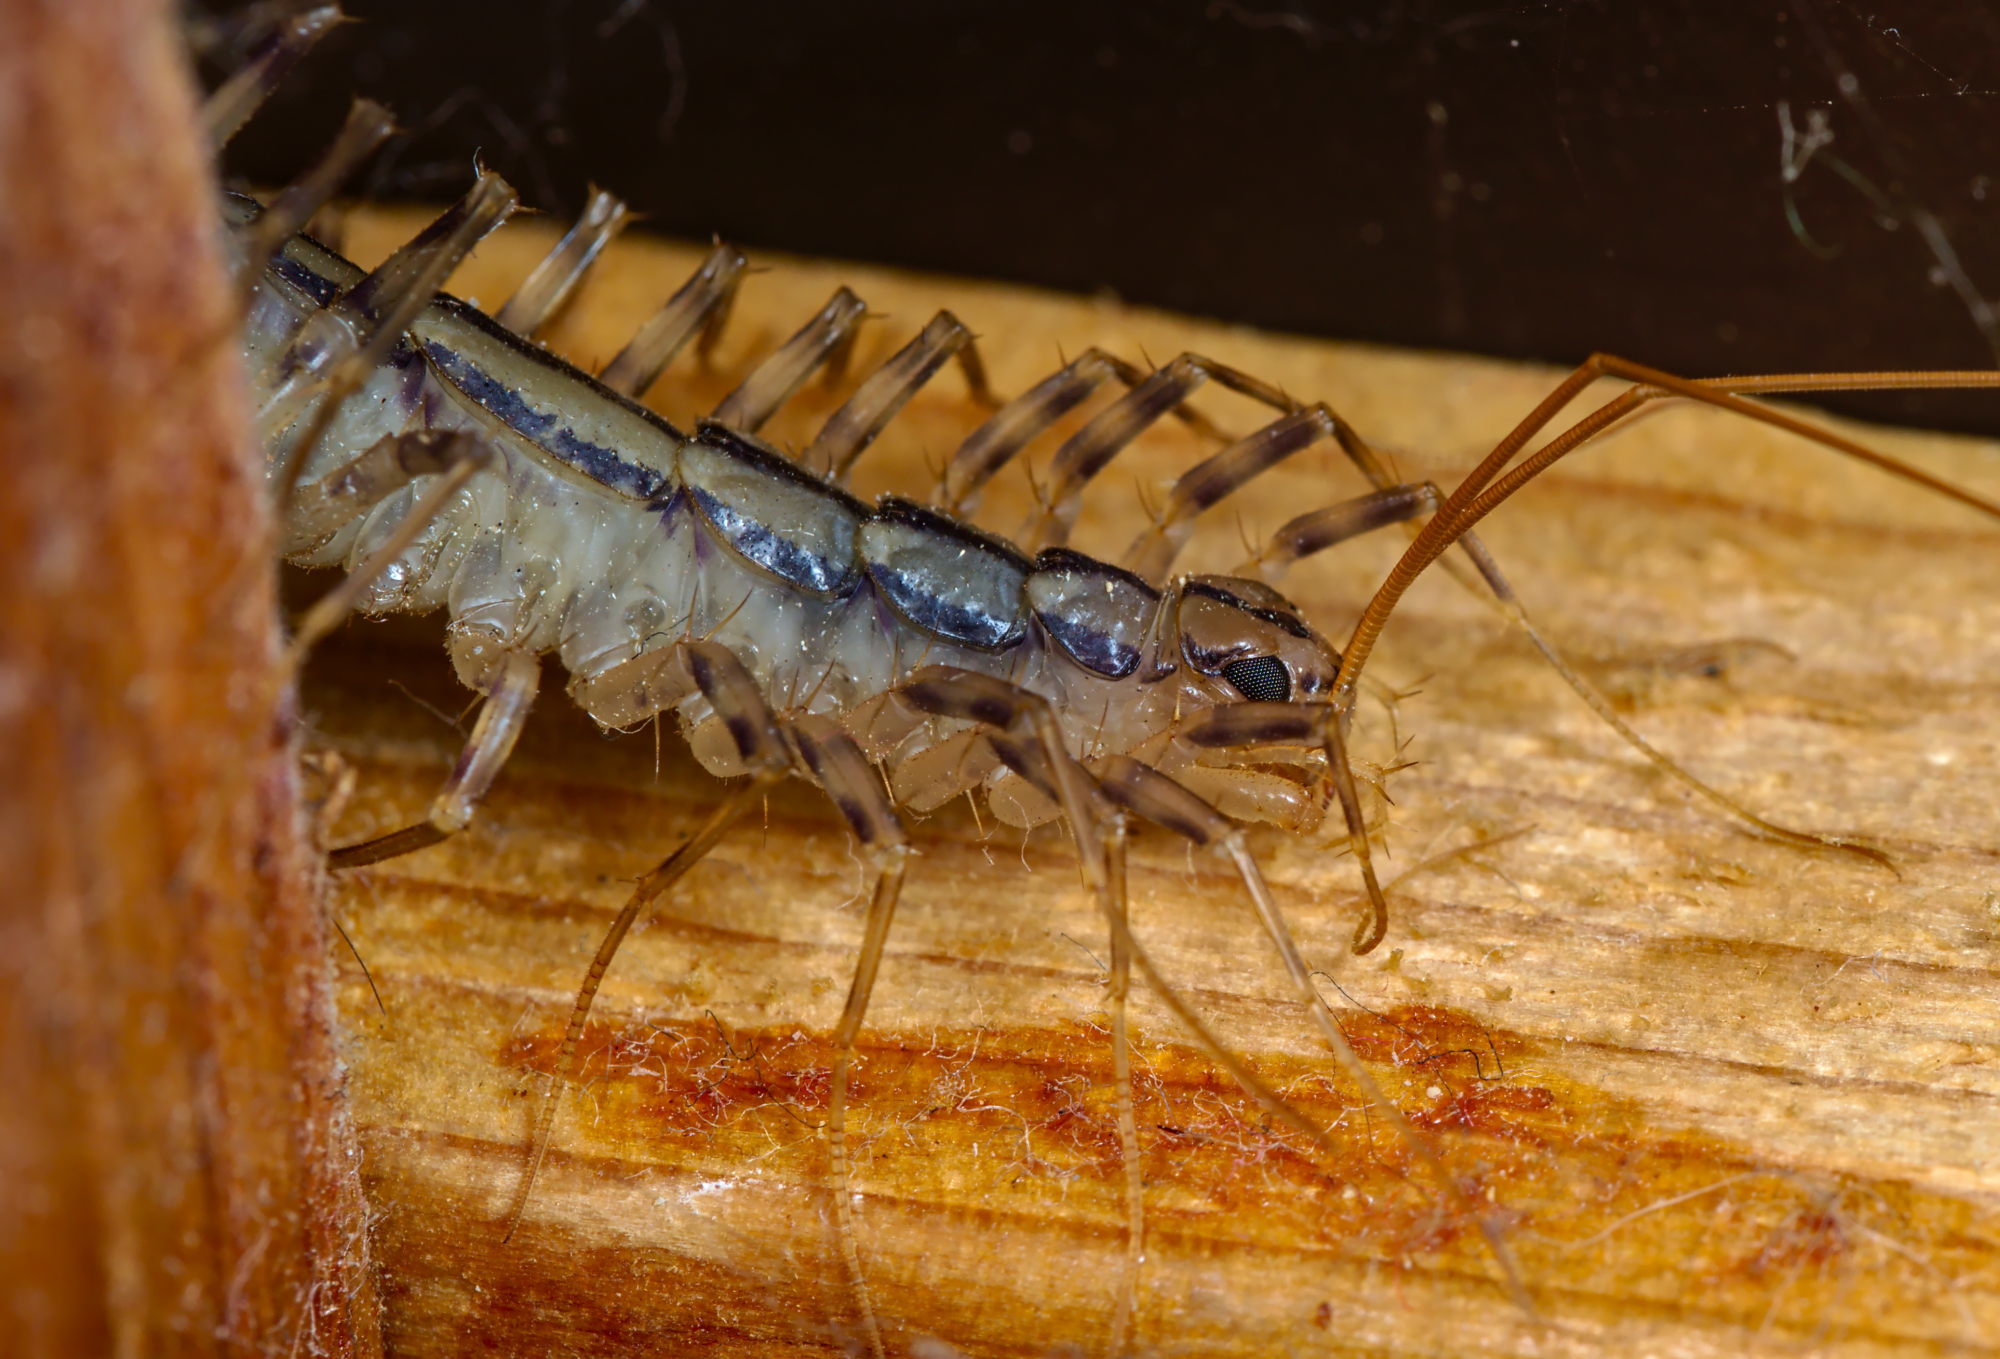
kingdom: Animalia
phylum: Arthropoda
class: Chilopoda
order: Scutigeromorpha
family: Scutigeridae
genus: Scutigera
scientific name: Scutigera coleoptrata
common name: House centipede
